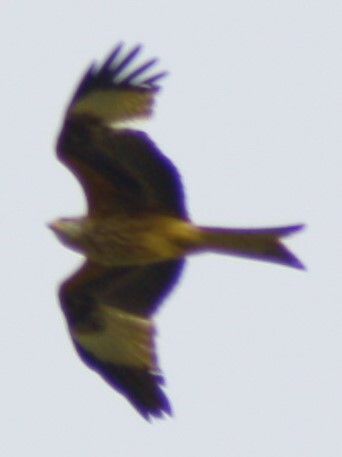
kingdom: Animalia
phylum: Chordata
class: Aves
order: Accipitriformes
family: Accipitridae
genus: Milvus
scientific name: Milvus milvus
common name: Red kite
